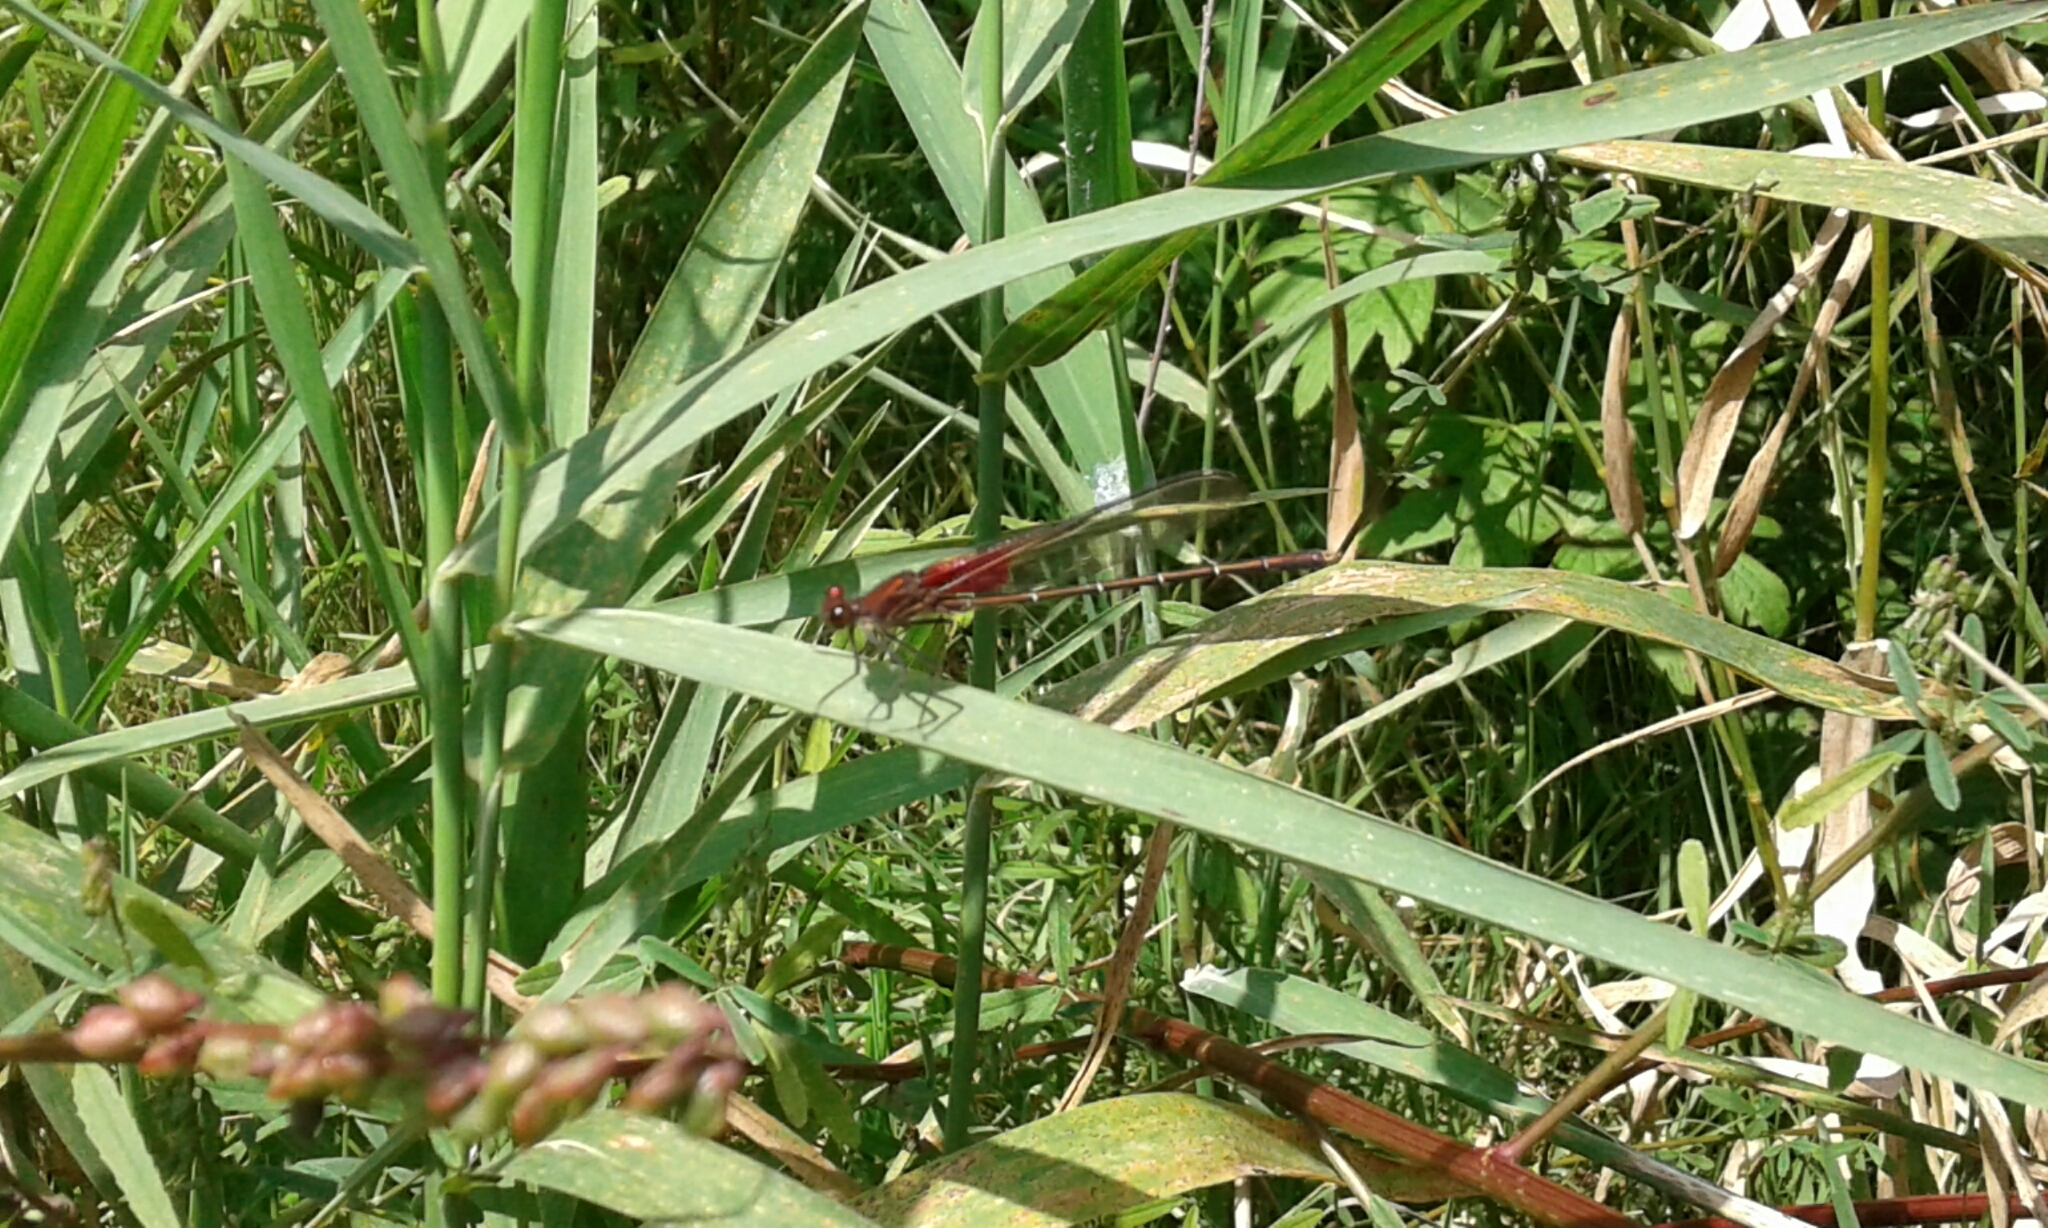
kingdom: Animalia
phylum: Arthropoda
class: Insecta
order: Odonata
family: Calopterygidae
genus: Hetaerina
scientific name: Hetaerina americana
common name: American rubyspot
